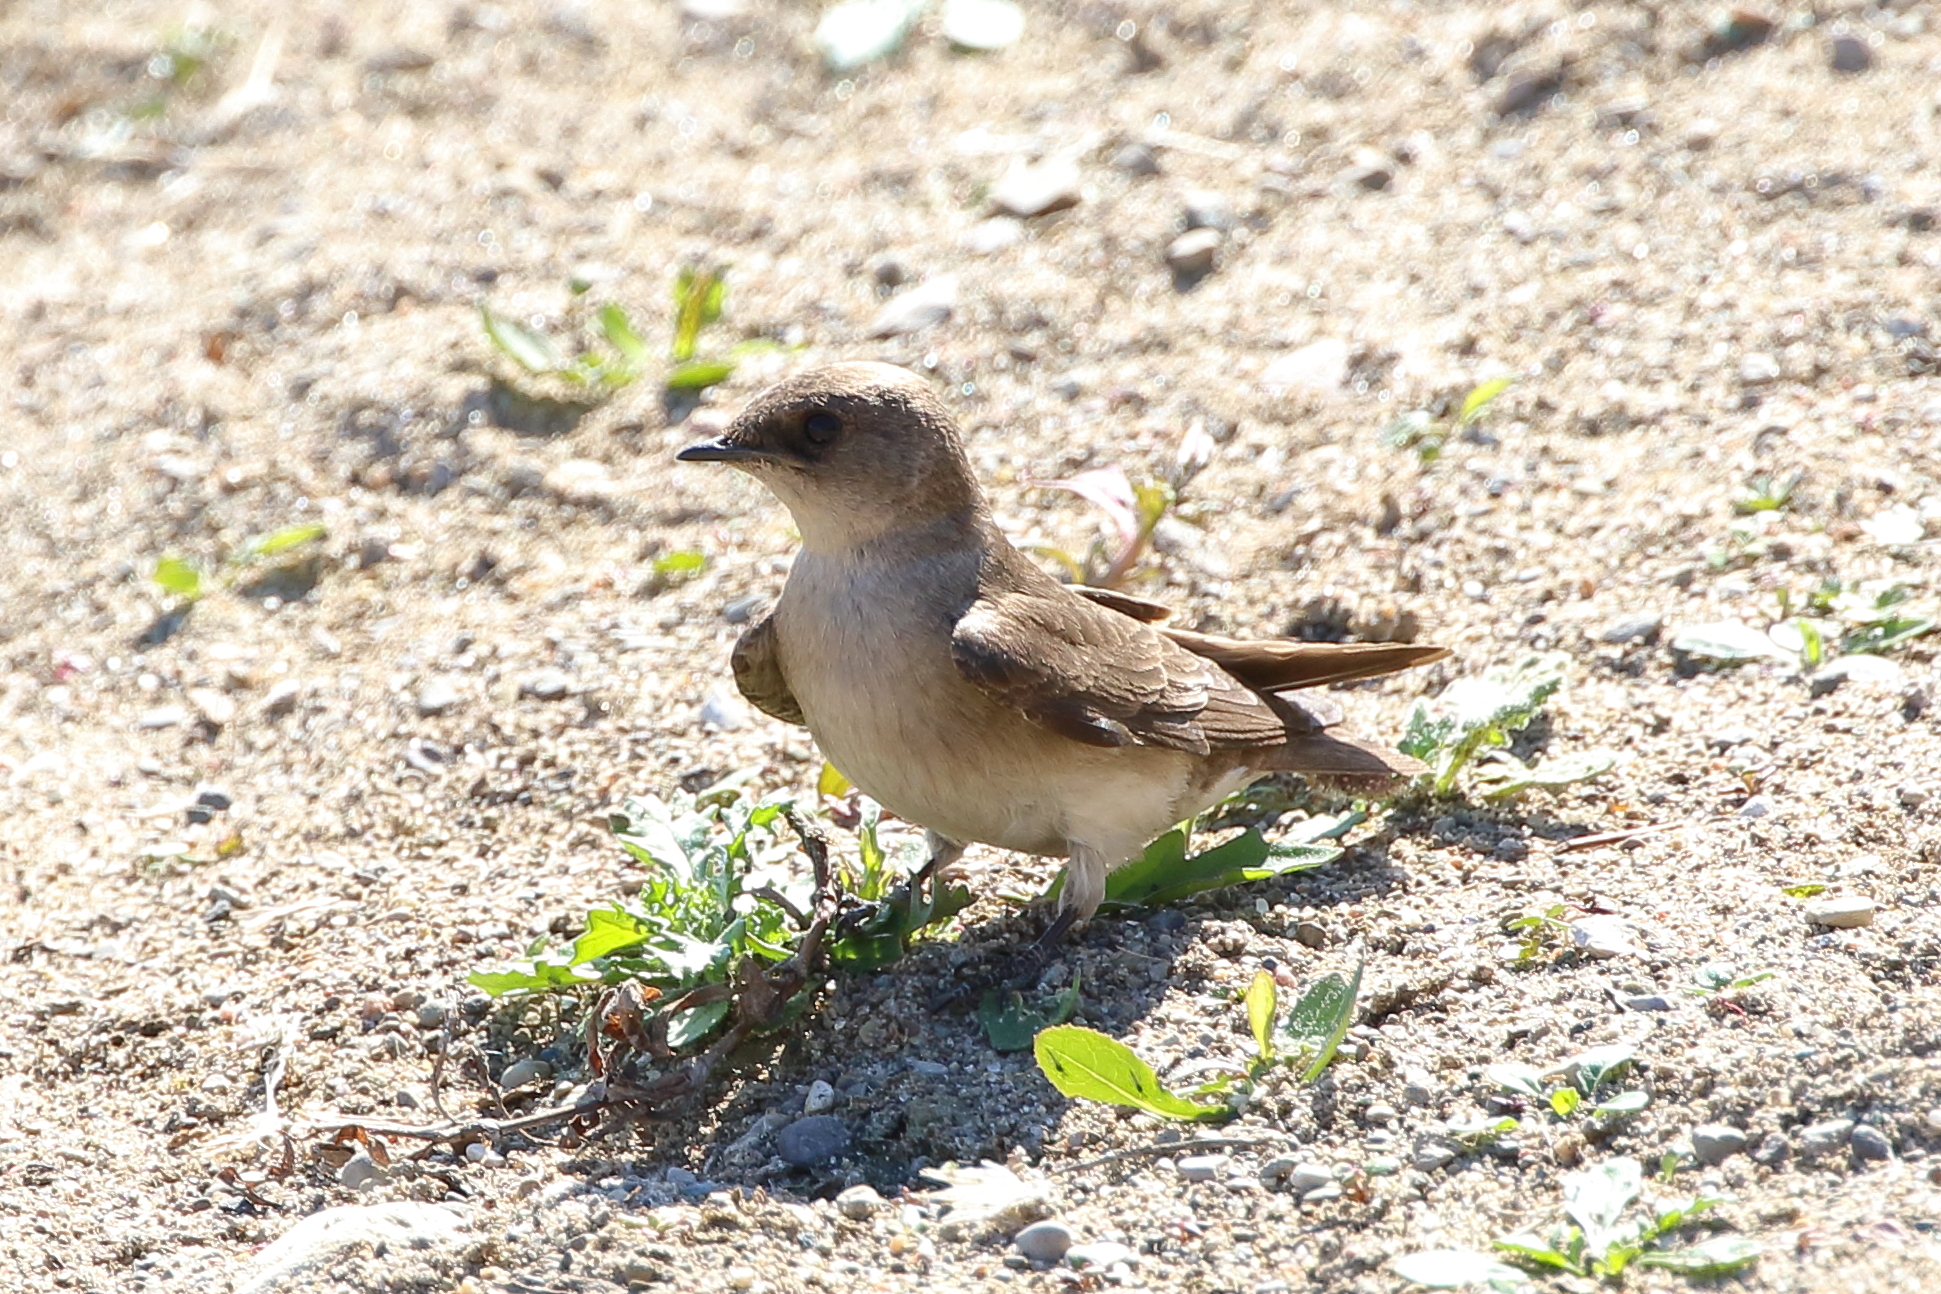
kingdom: Animalia
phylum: Chordata
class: Aves
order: Passeriformes
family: Hirundinidae
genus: Stelgidopteryx
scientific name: Stelgidopteryx serripennis
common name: Northern rough-winged swallow
